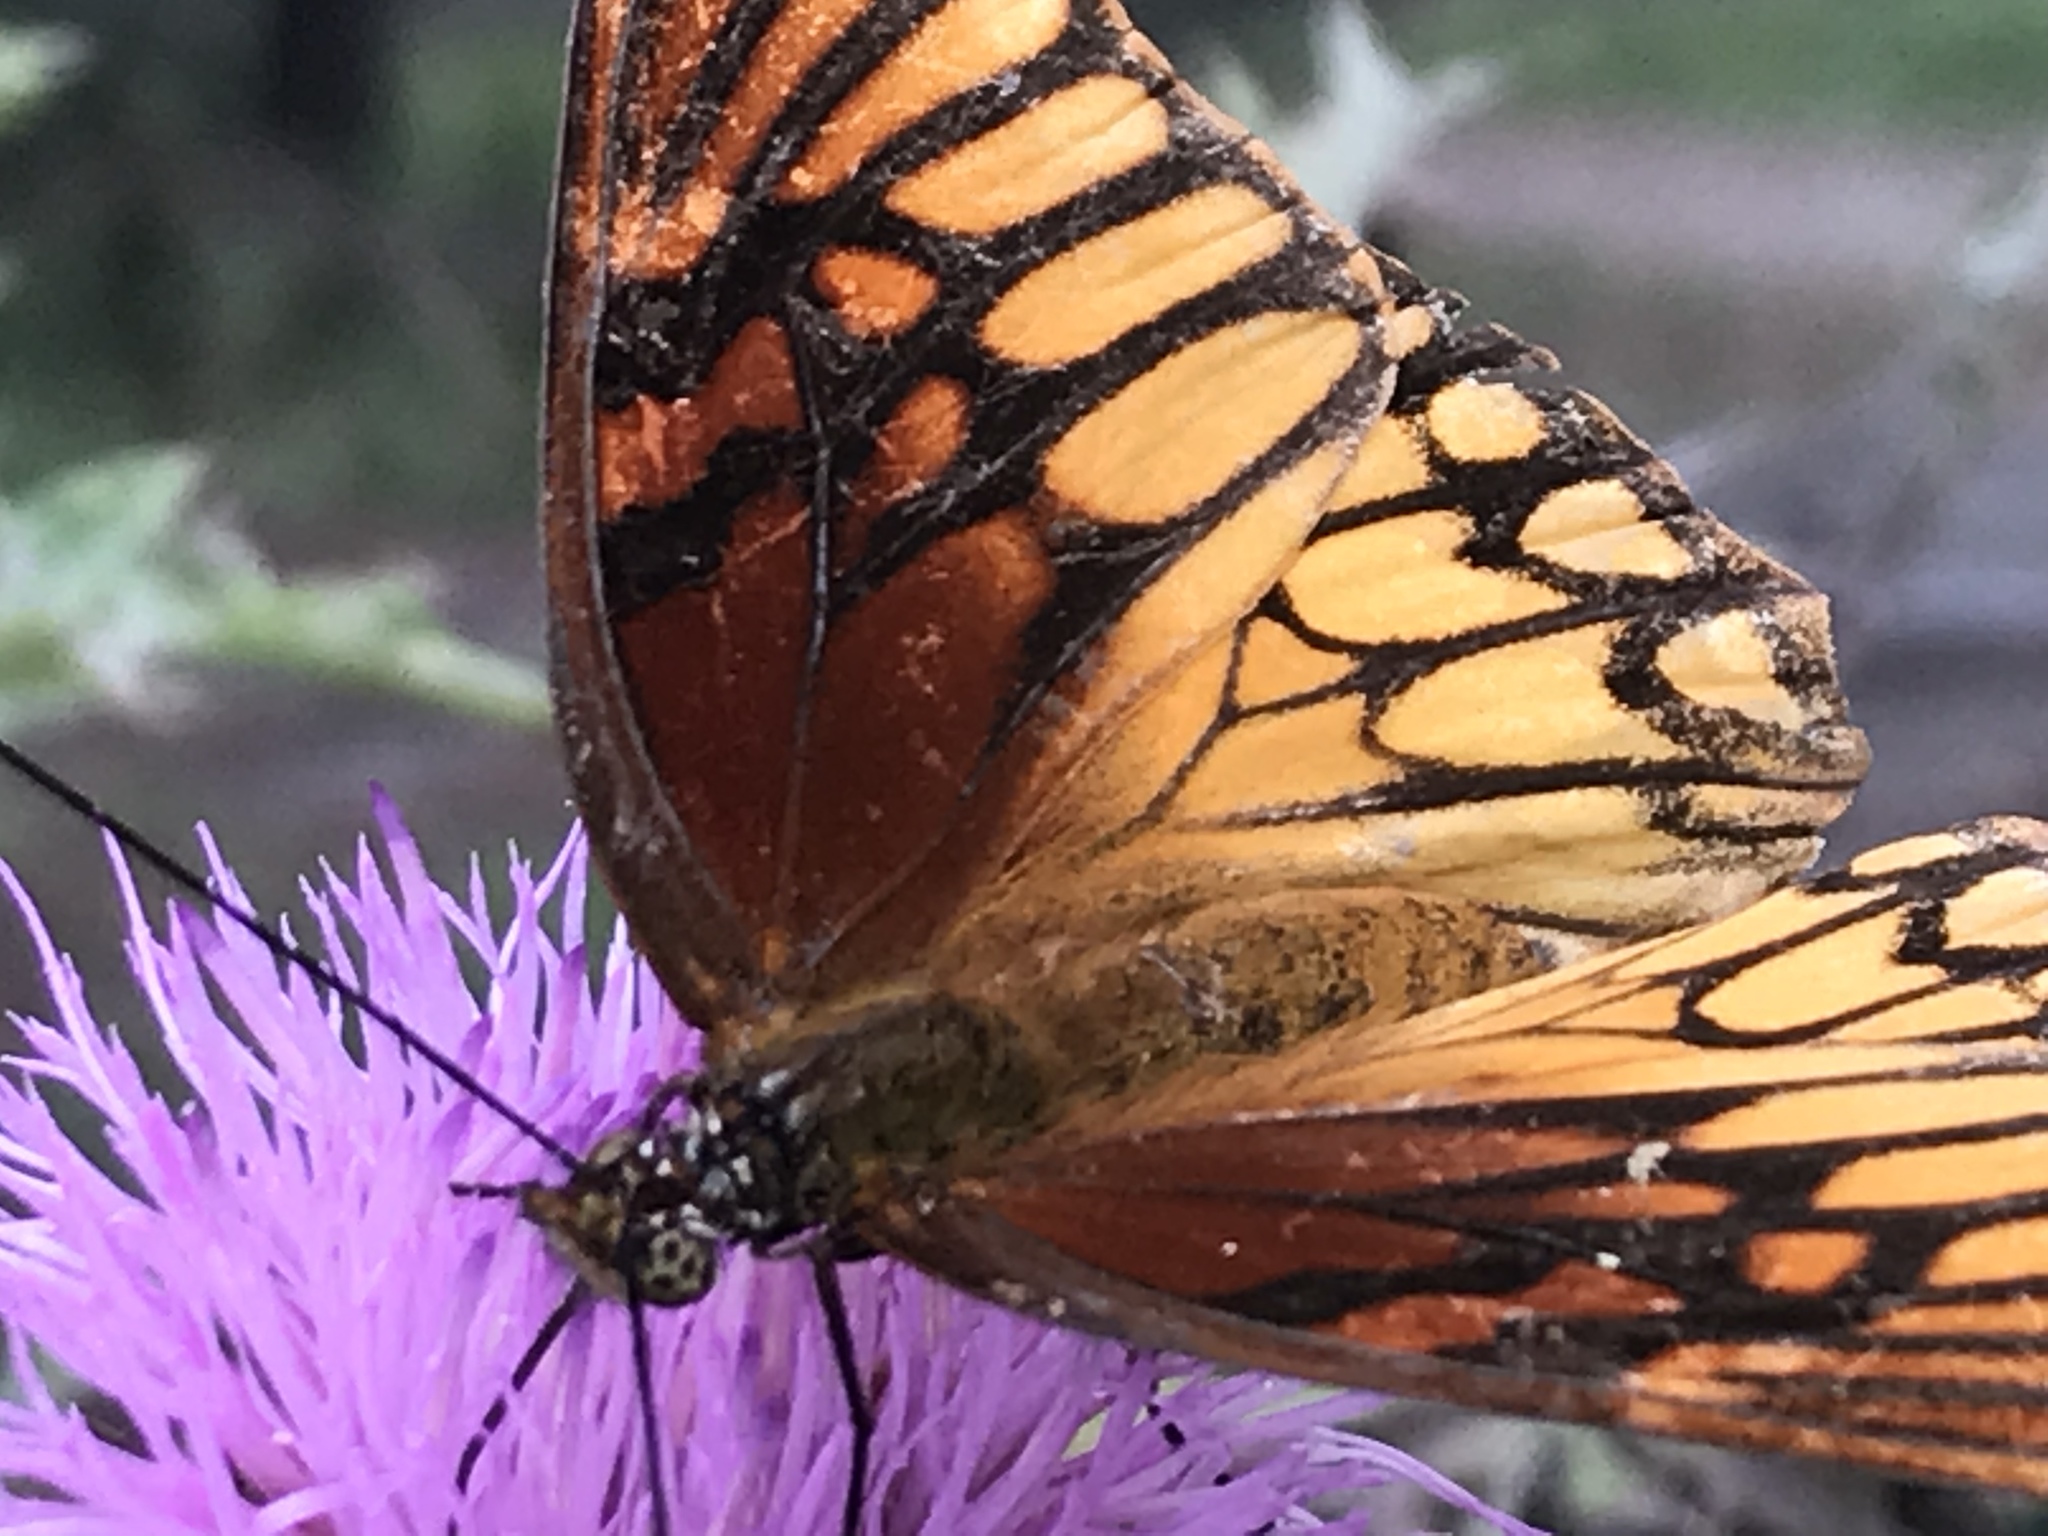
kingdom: Animalia
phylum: Arthropoda
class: Insecta
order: Lepidoptera
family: Nymphalidae
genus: Dione
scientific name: Dione moneta
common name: Mexican silverspot
